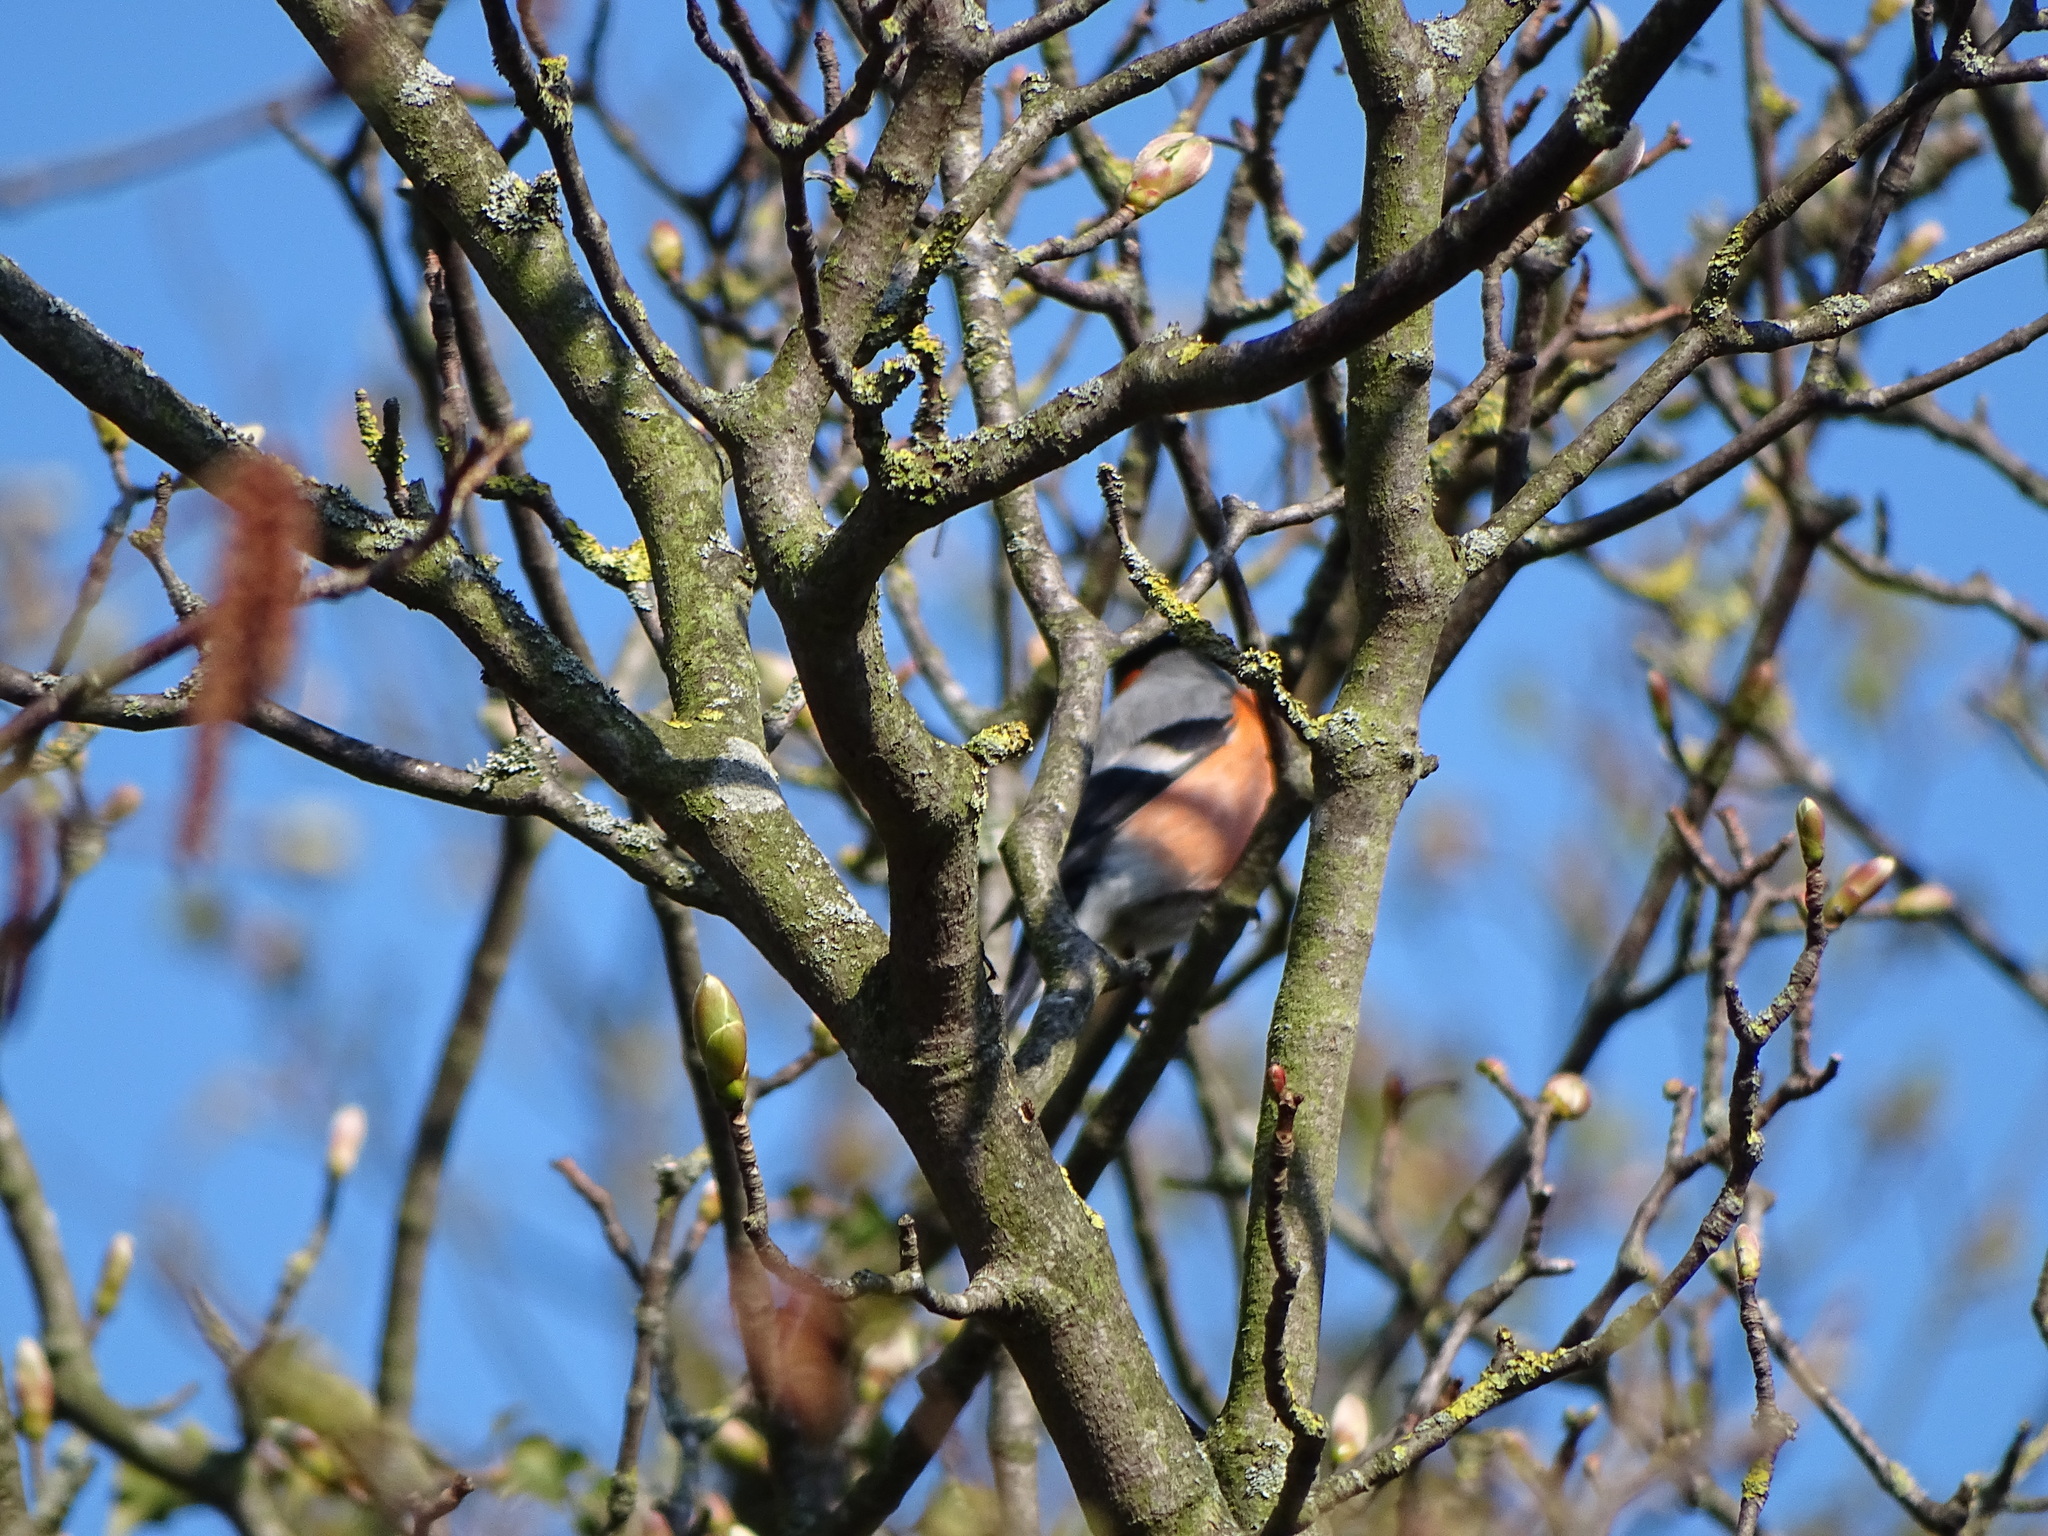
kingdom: Animalia
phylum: Chordata
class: Aves
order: Passeriformes
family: Fringillidae
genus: Pyrrhula
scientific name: Pyrrhula pyrrhula
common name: Eurasian bullfinch
